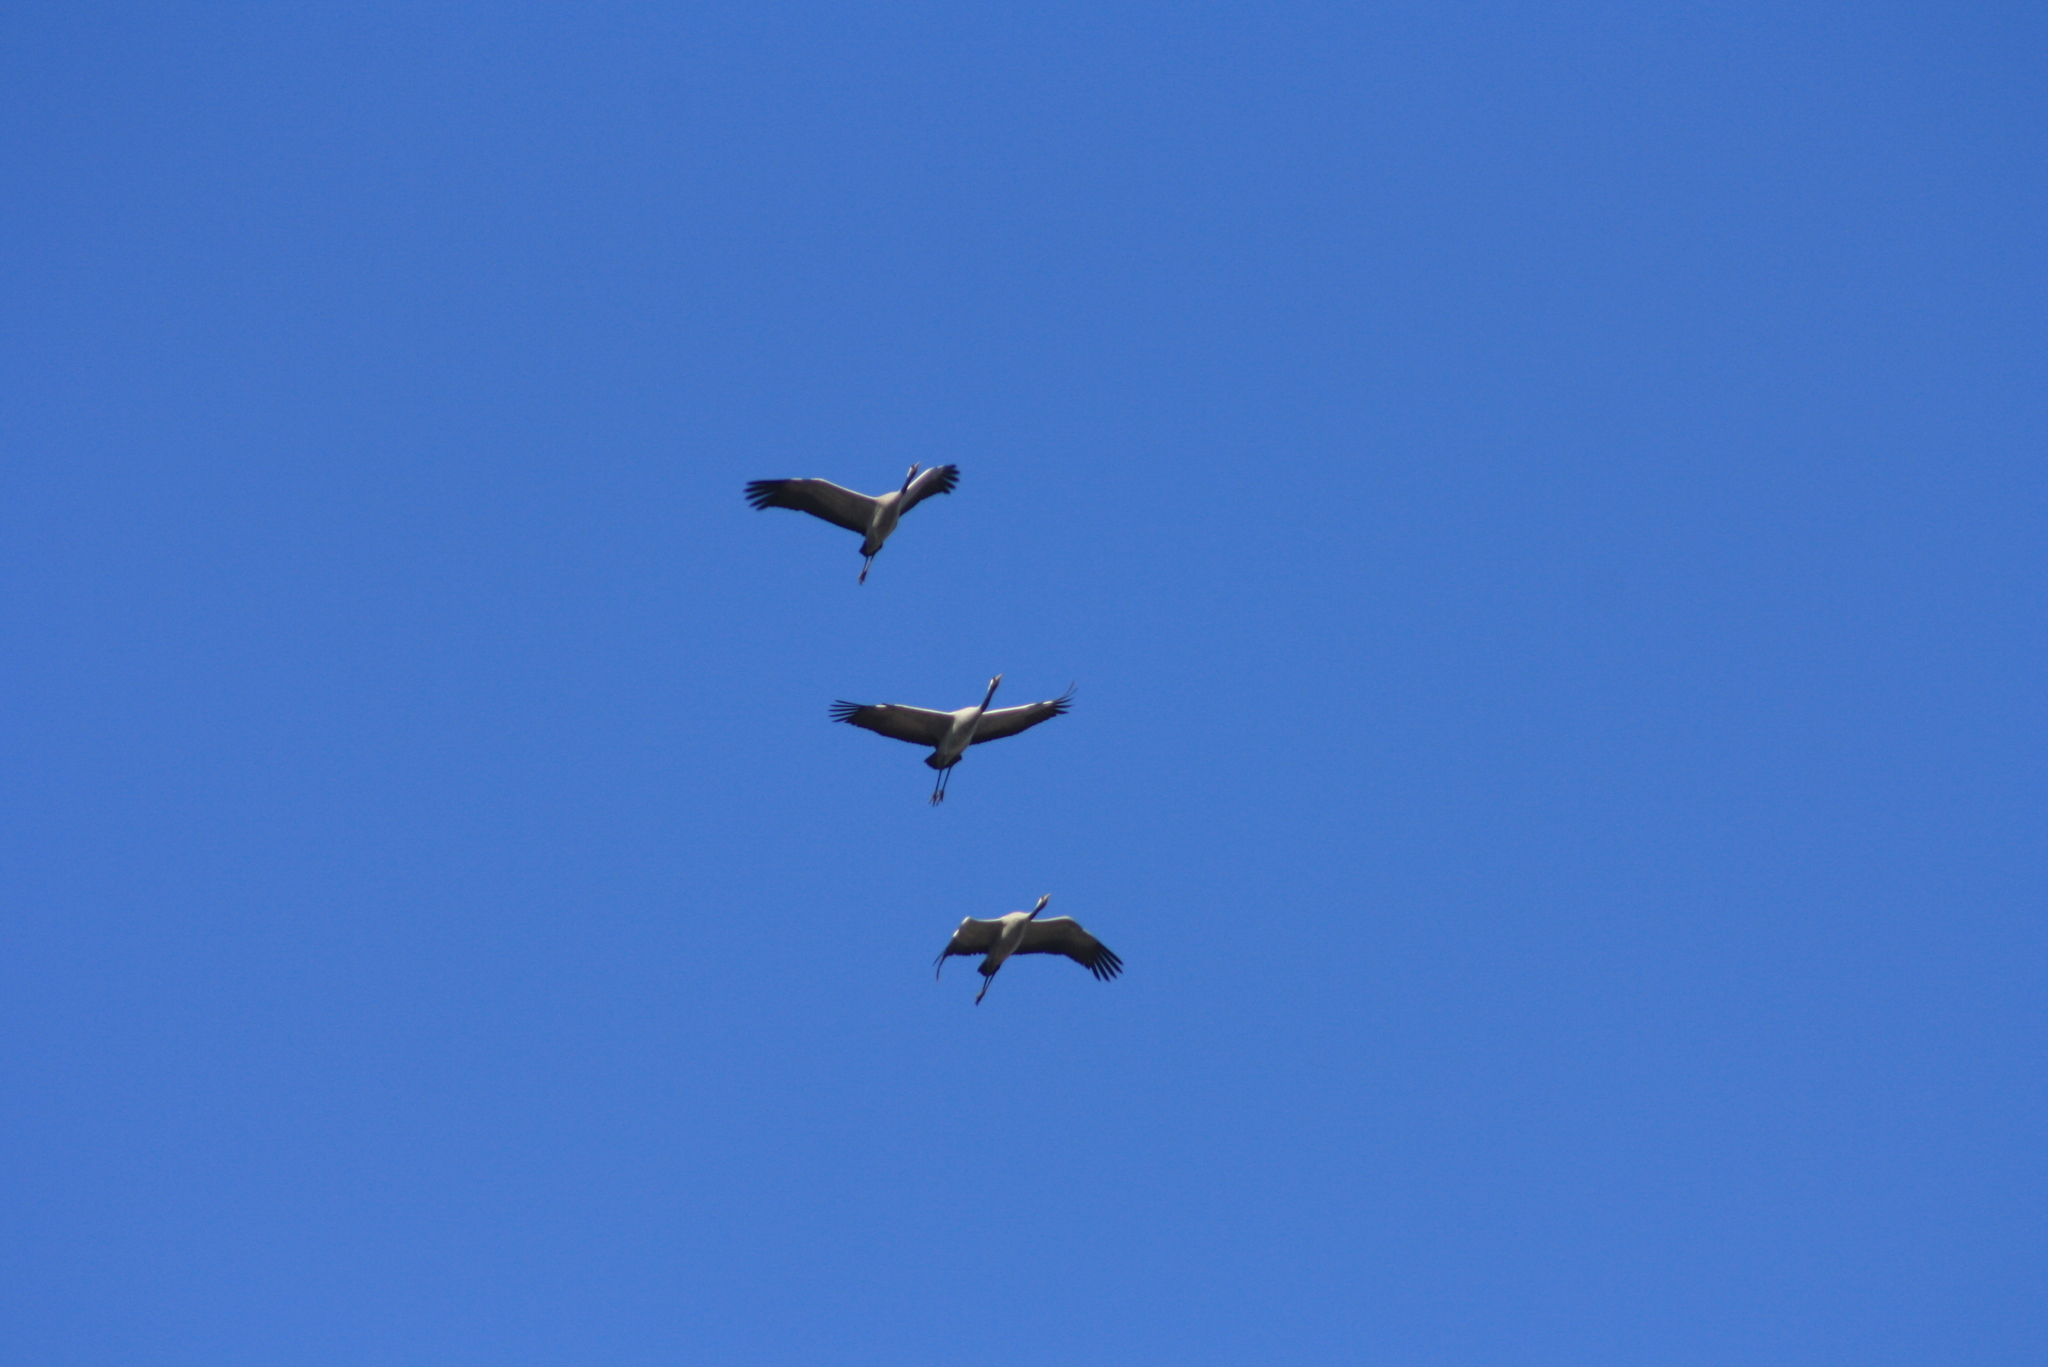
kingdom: Animalia
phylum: Chordata
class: Aves
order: Gruiformes
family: Gruidae
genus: Grus
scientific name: Grus grus
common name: Common crane
